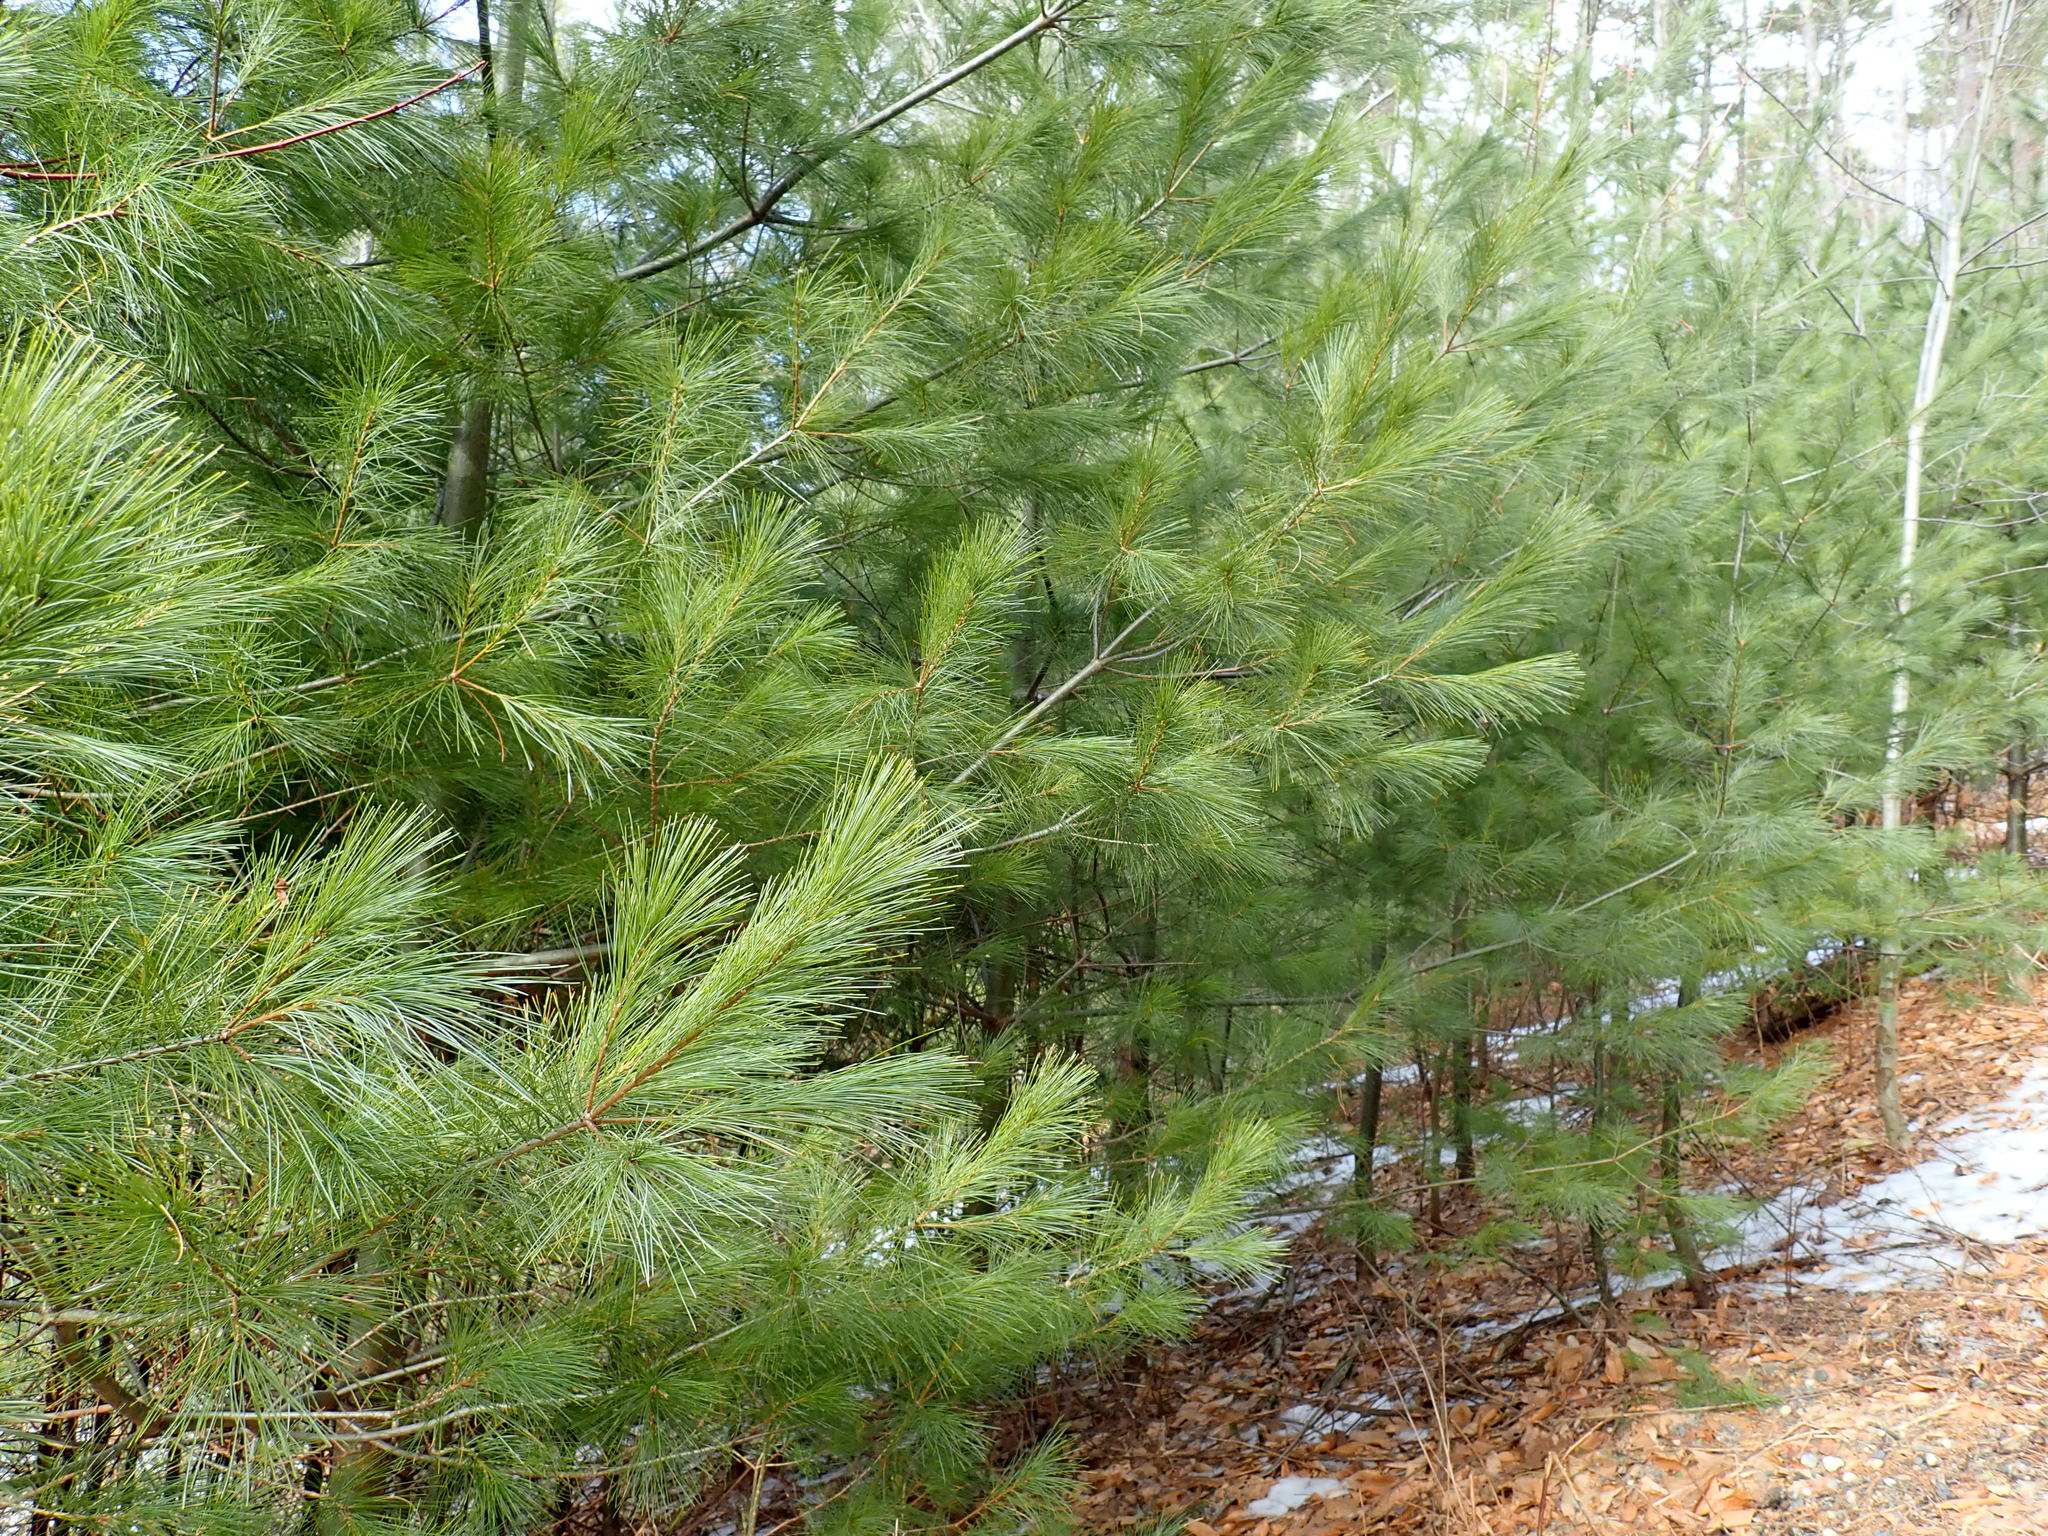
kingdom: Plantae
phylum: Tracheophyta
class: Pinopsida
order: Pinales
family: Pinaceae
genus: Pinus
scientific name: Pinus strobus
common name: Weymouth pine
